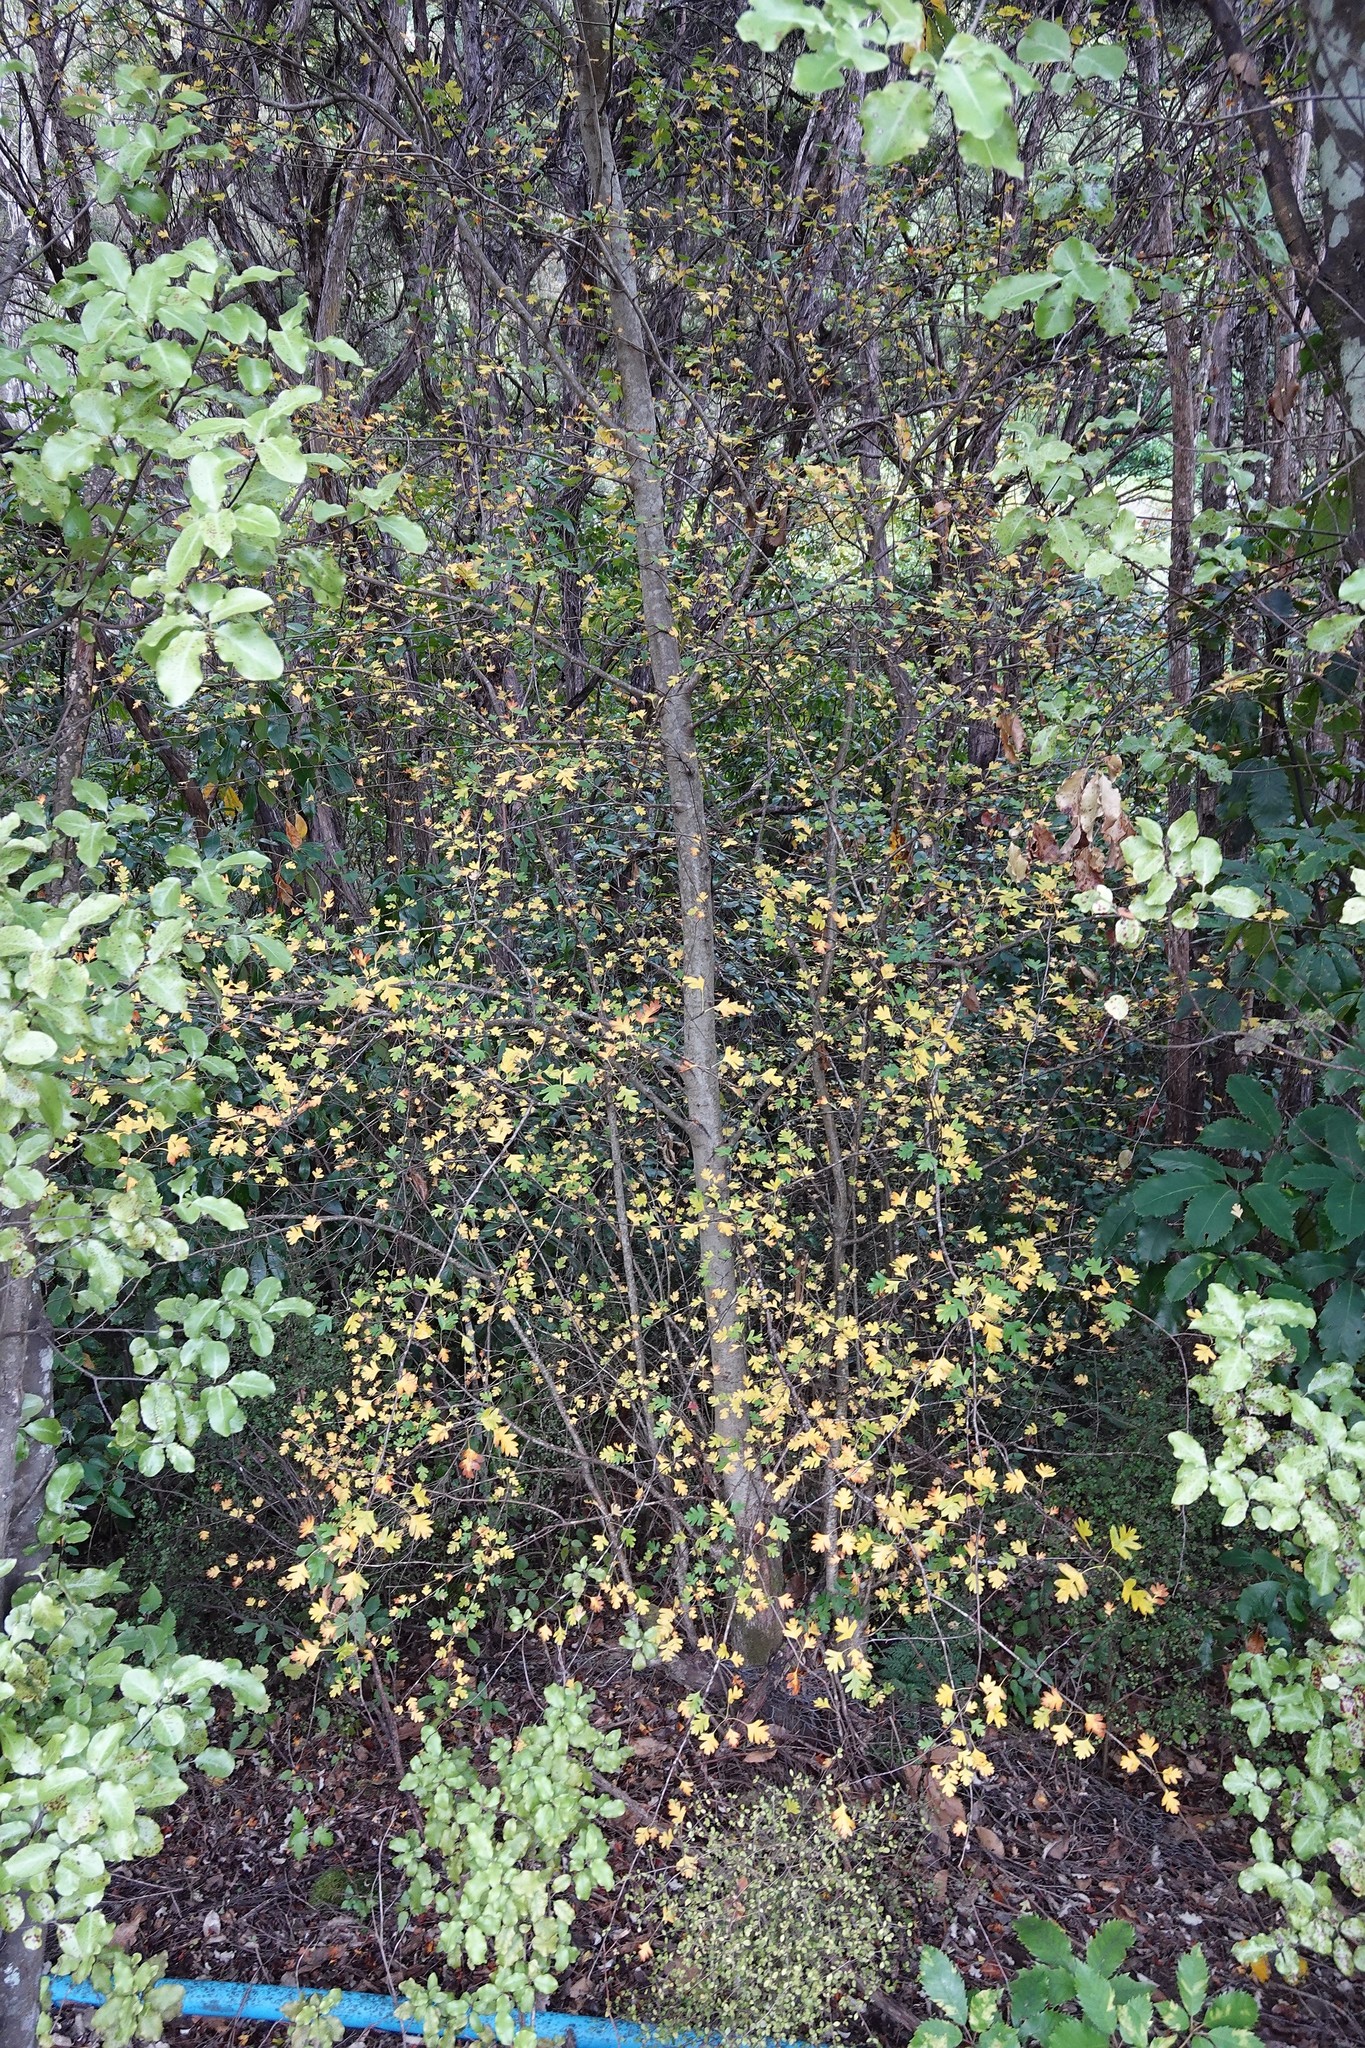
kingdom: Plantae
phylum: Tracheophyta
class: Magnoliopsida
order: Rosales
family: Rosaceae
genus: Crataegus
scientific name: Crataegus monogyna
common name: Hawthorn
